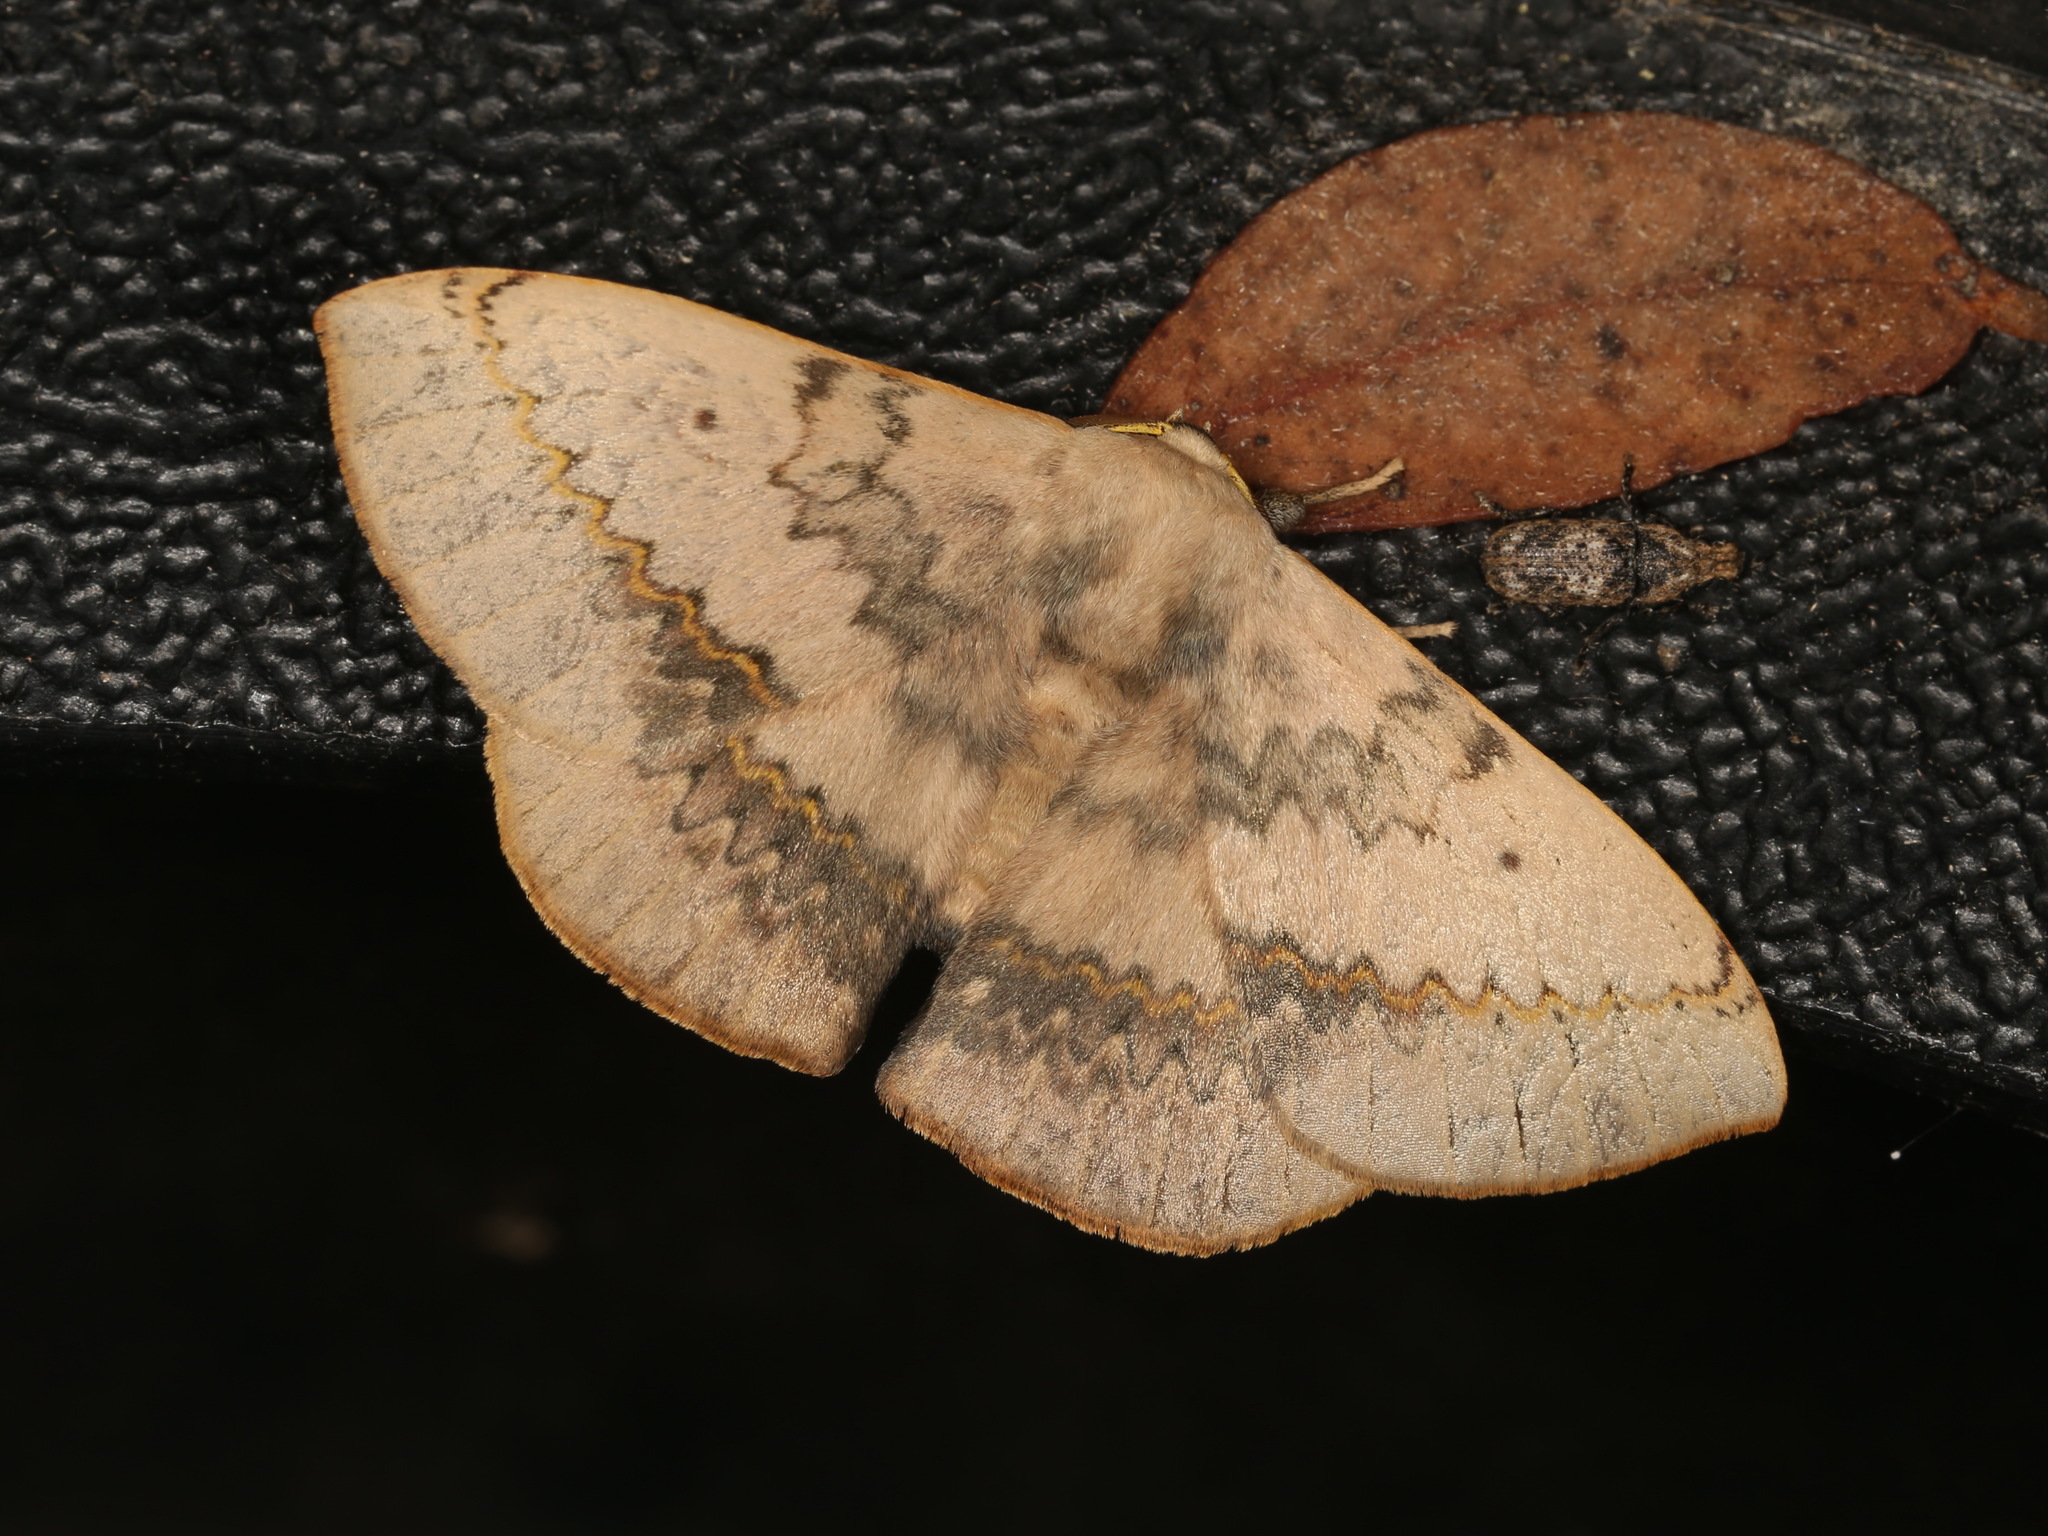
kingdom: Animalia
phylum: Arthropoda
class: Insecta
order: Lepidoptera
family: Anthelidae
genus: Anthela
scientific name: Anthela varia
